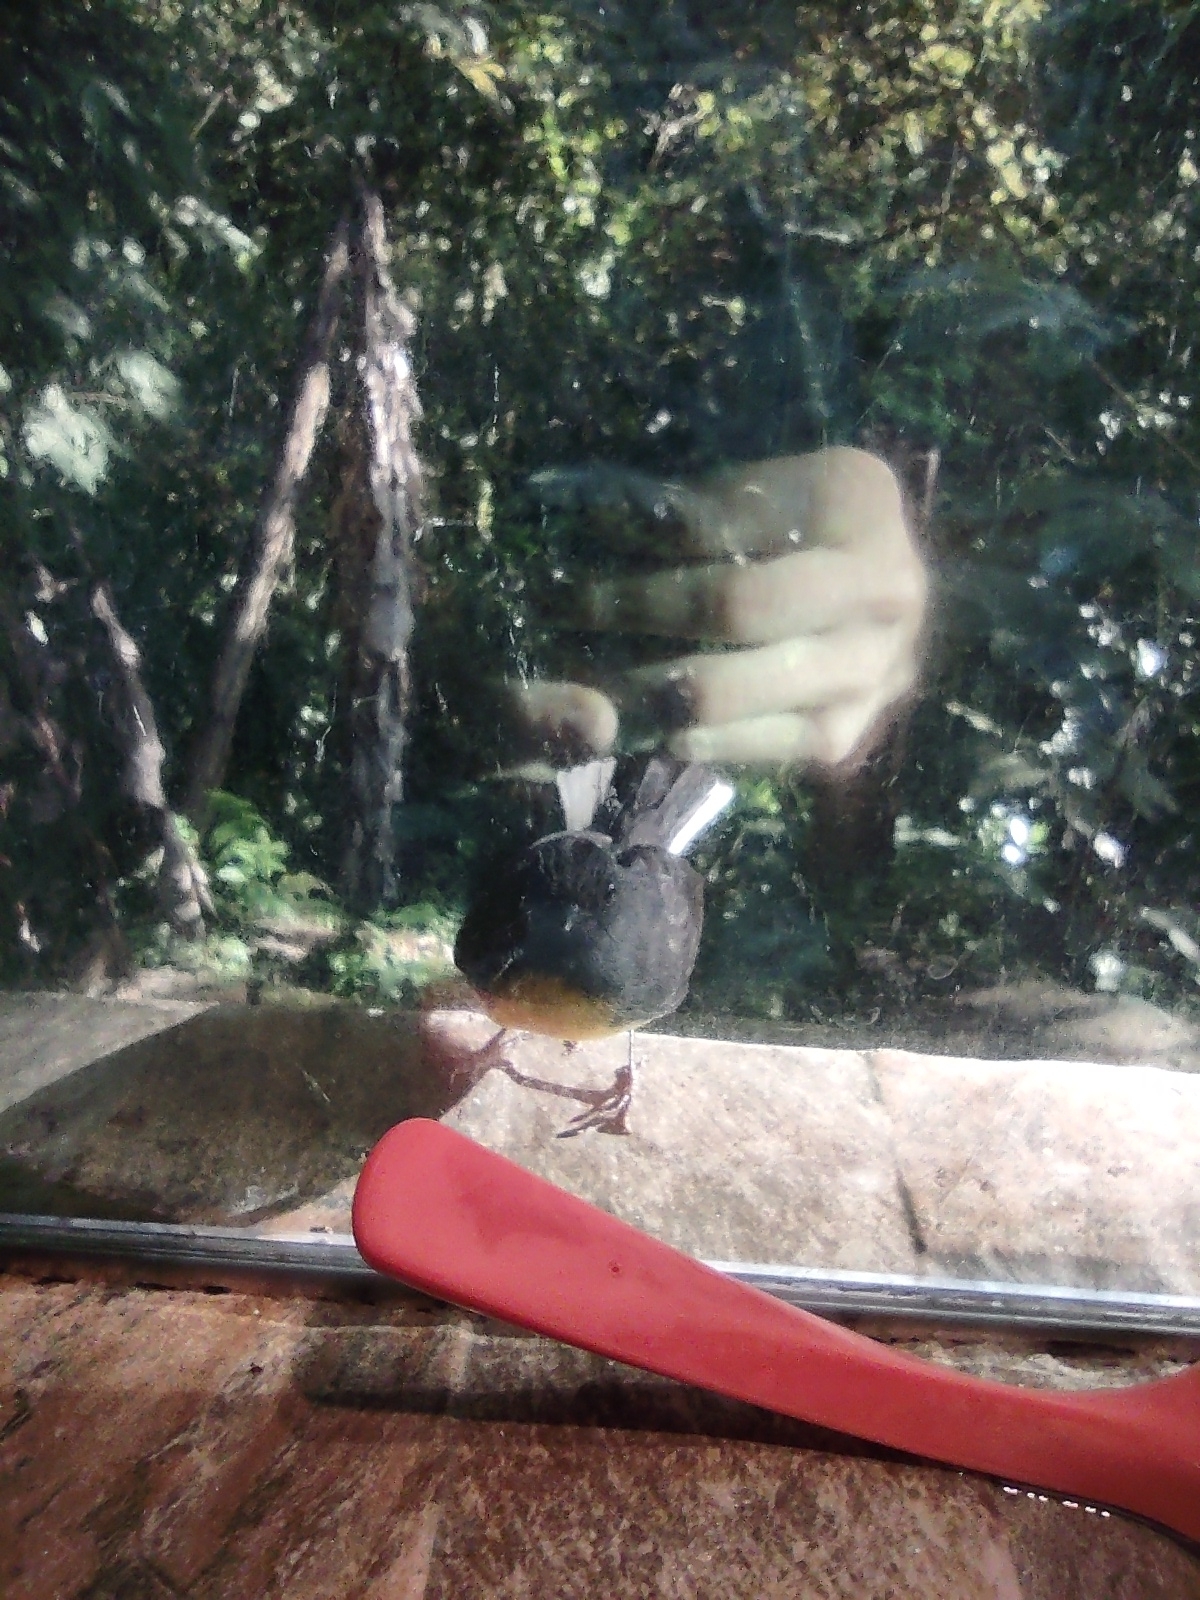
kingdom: Animalia
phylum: Chordata
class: Aves
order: Passeriformes
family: Parulidae
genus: Myioborus
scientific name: Myioborus miniatus
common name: Slate-throated redstart
